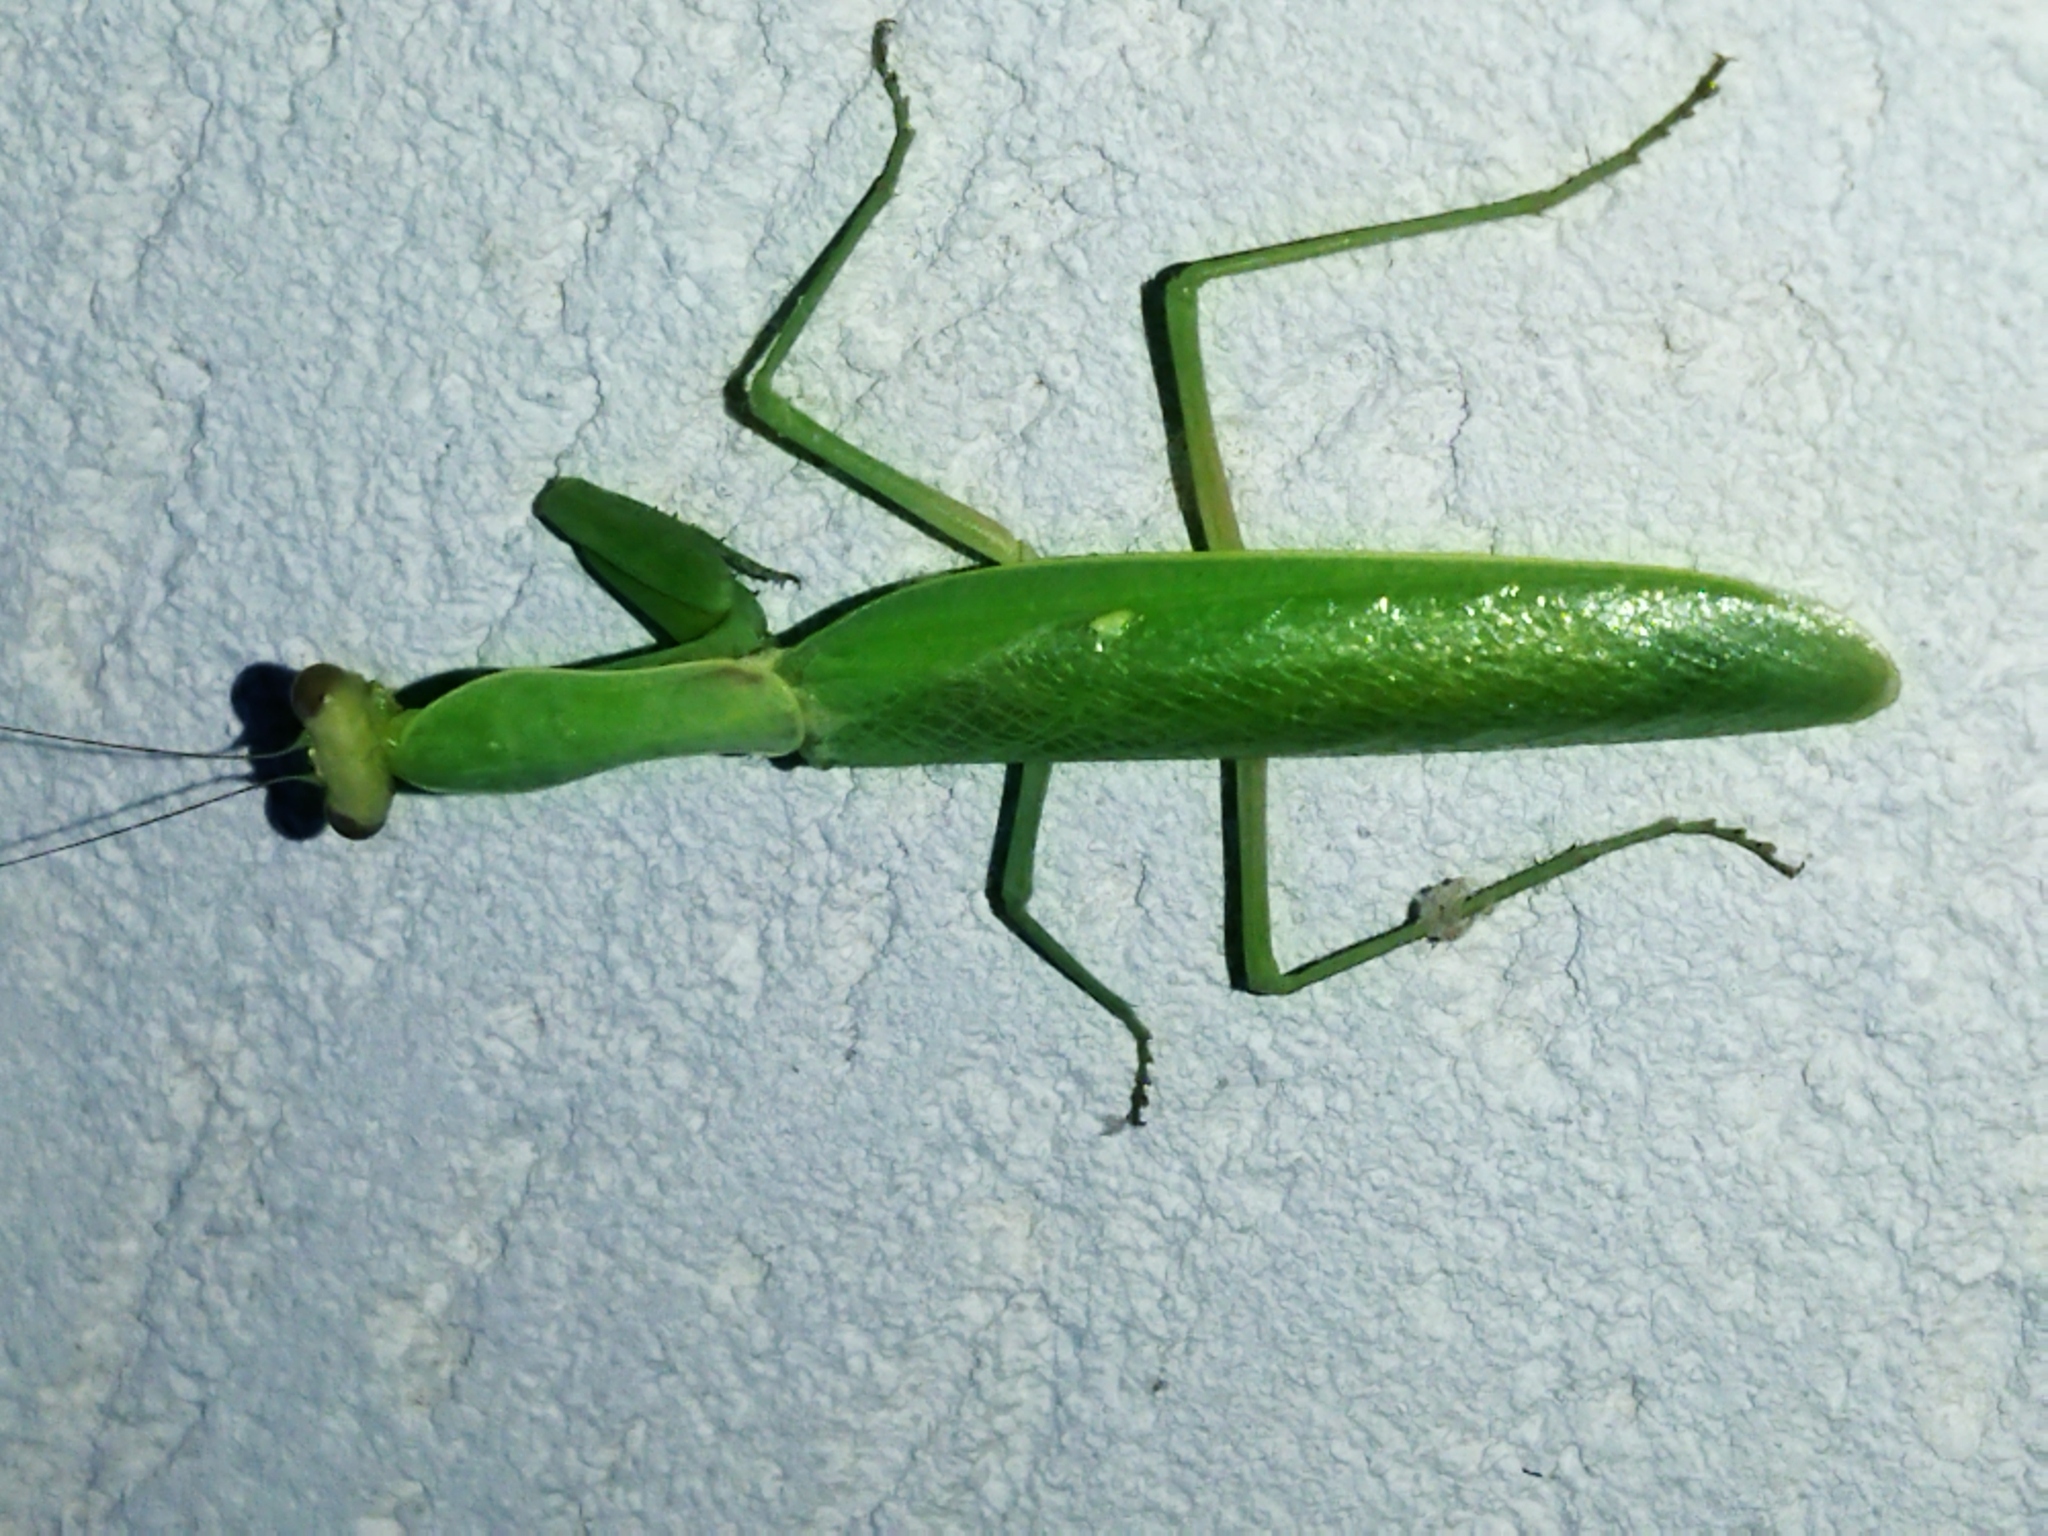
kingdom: Animalia
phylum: Arthropoda
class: Insecta
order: Mantodea
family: Mantidae
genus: Hierodula
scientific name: Hierodula transcaucasica
